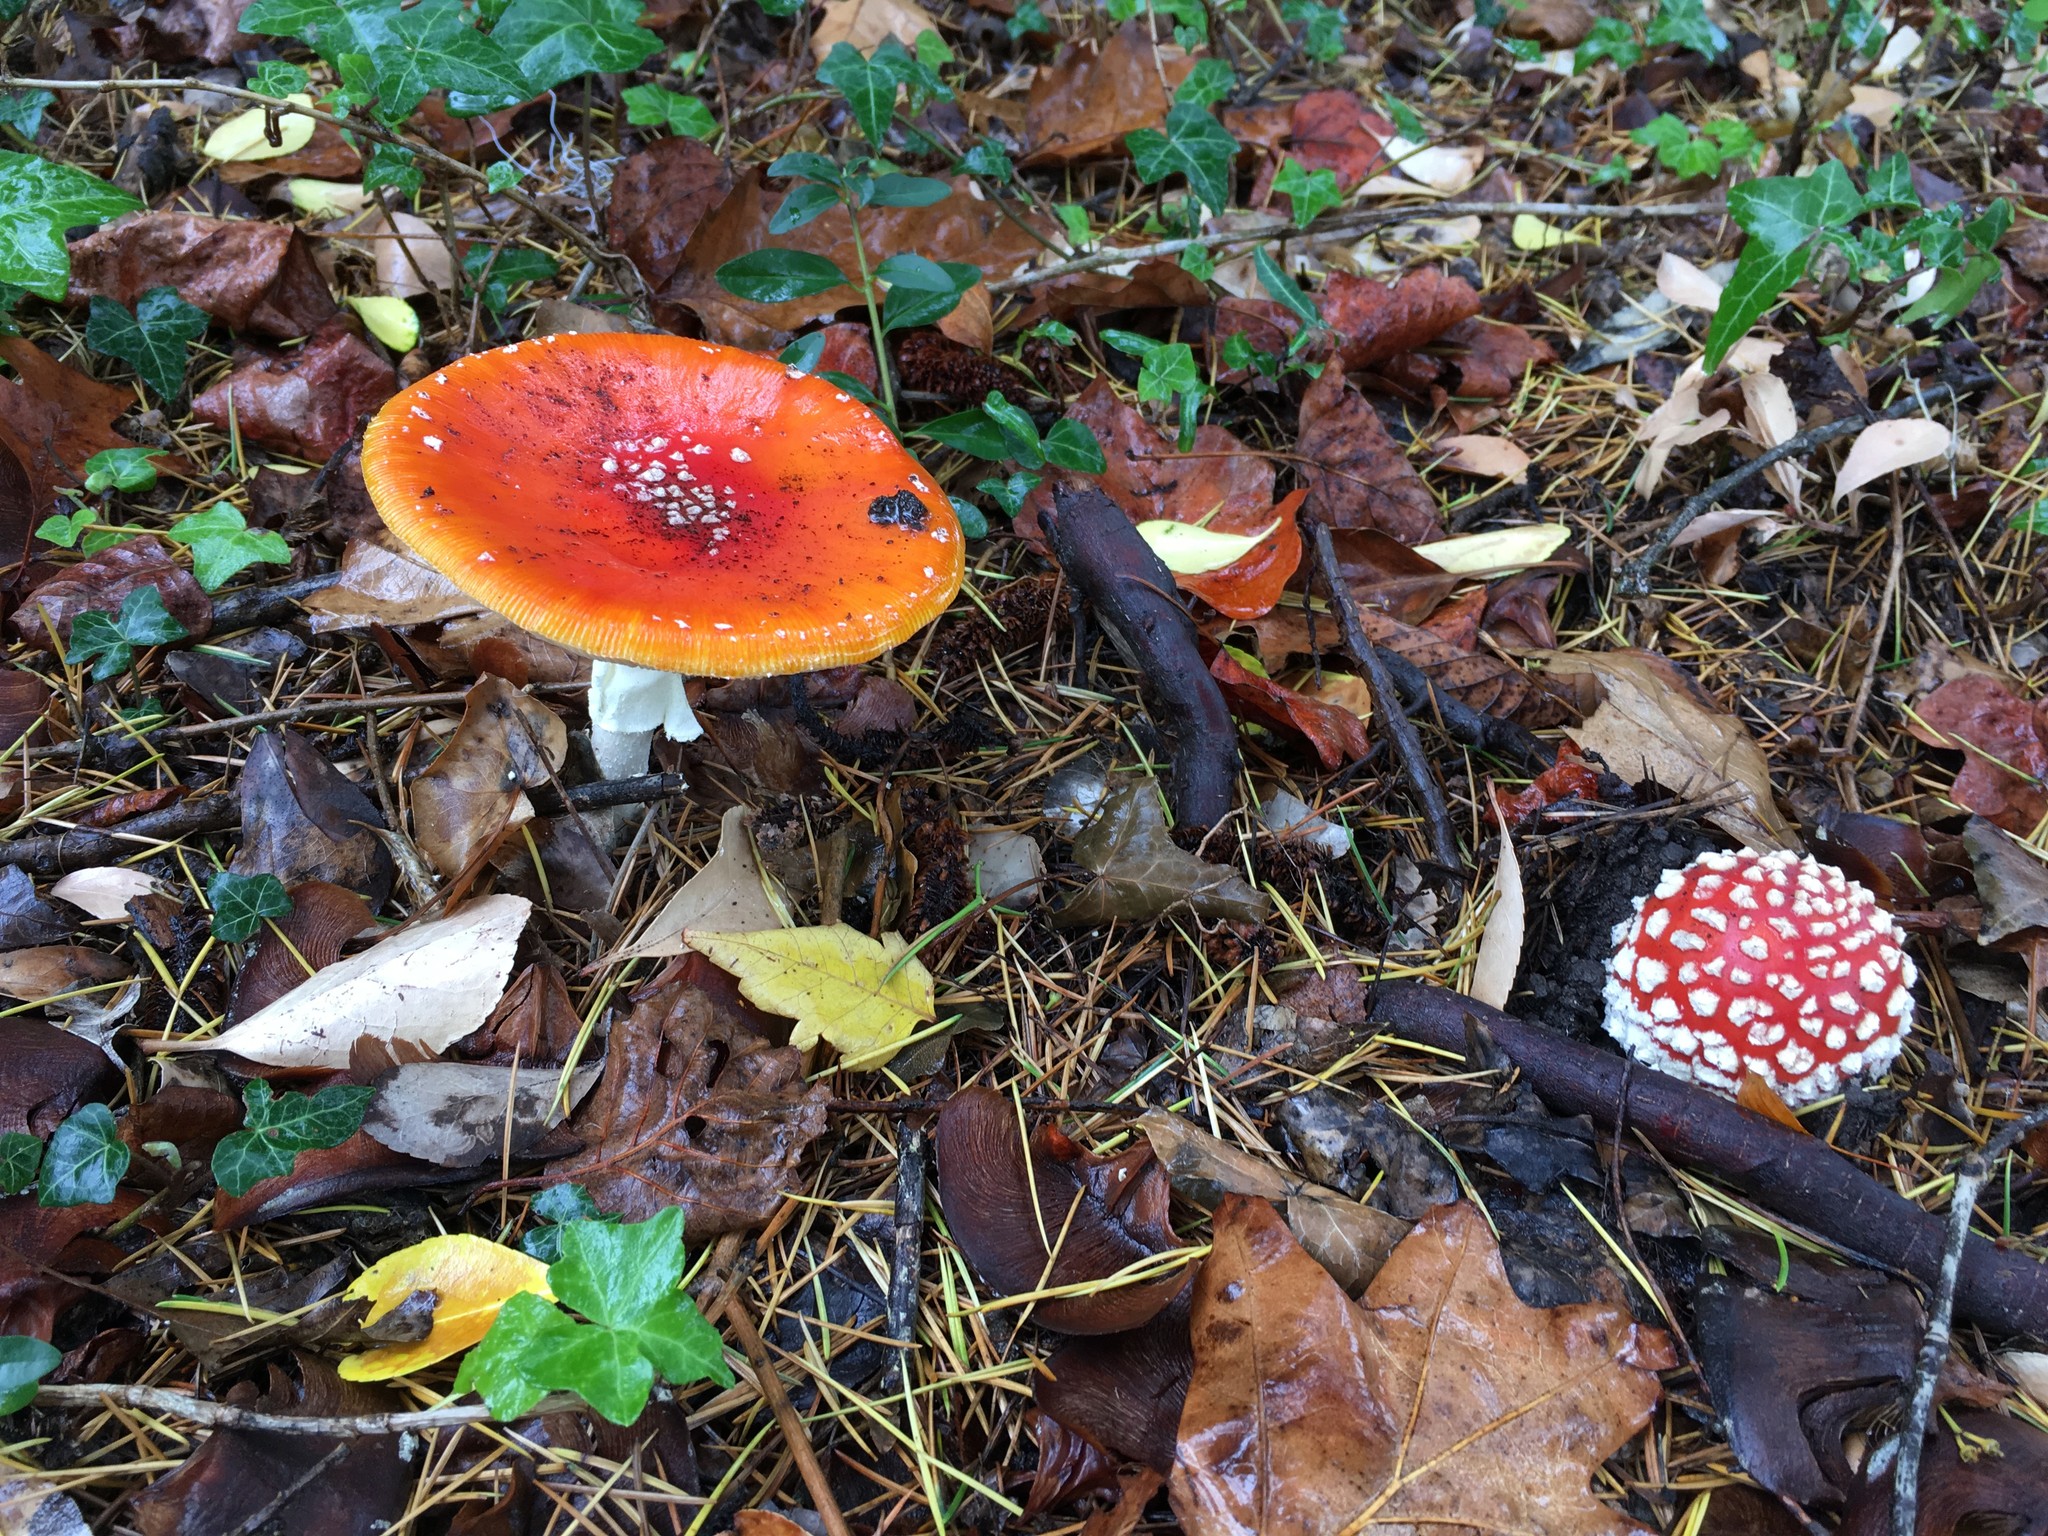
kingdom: Fungi
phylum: Basidiomycota
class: Agaricomycetes
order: Agaricales
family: Amanitaceae
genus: Amanita
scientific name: Amanita muscaria
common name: Fly agaric
